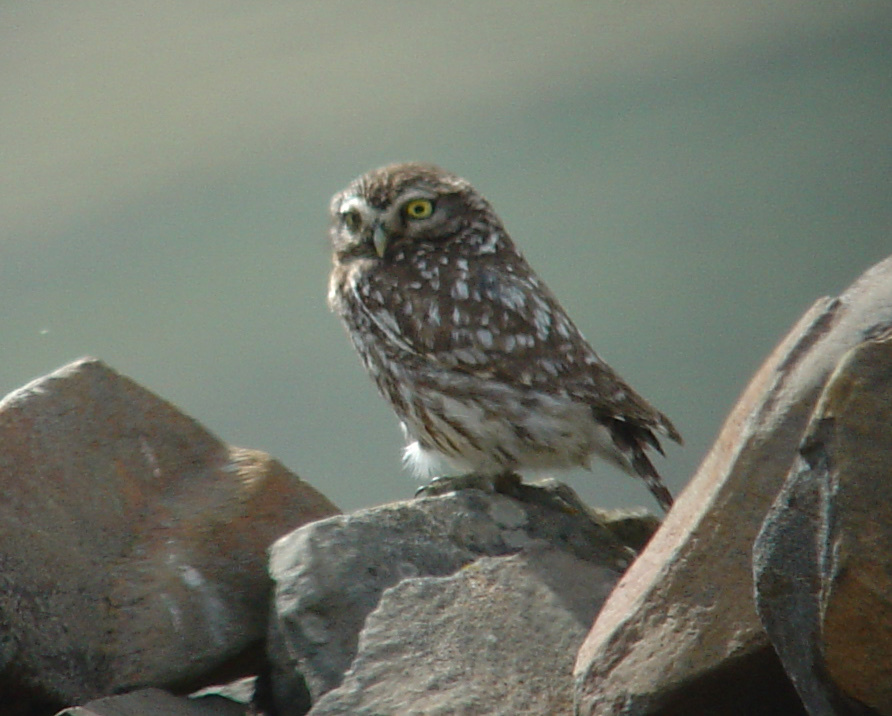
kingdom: Animalia
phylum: Chordata
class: Aves
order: Strigiformes
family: Strigidae
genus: Athene
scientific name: Athene noctua
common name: Little owl
